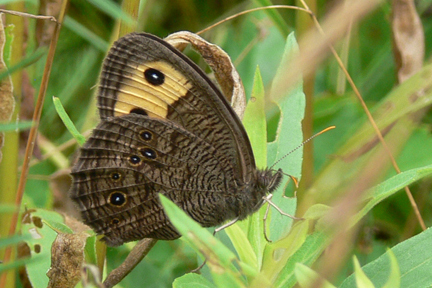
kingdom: Animalia
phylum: Arthropoda
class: Insecta
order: Lepidoptera
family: Nymphalidae
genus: Cercyonis
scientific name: Cercyonis pegala
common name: Common wood-nymph
